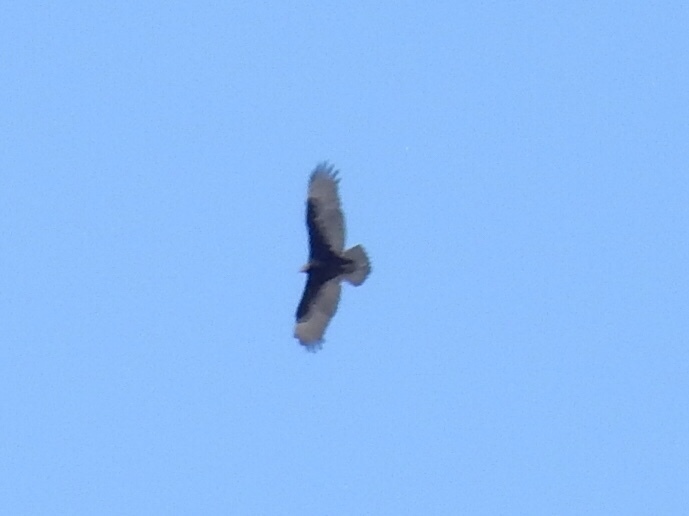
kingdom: Animalia
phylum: Chordata
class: Aves
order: Accipitriformes
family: Cathartidae
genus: Cathartes
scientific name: Cathartes aura
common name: Turkey vulture
